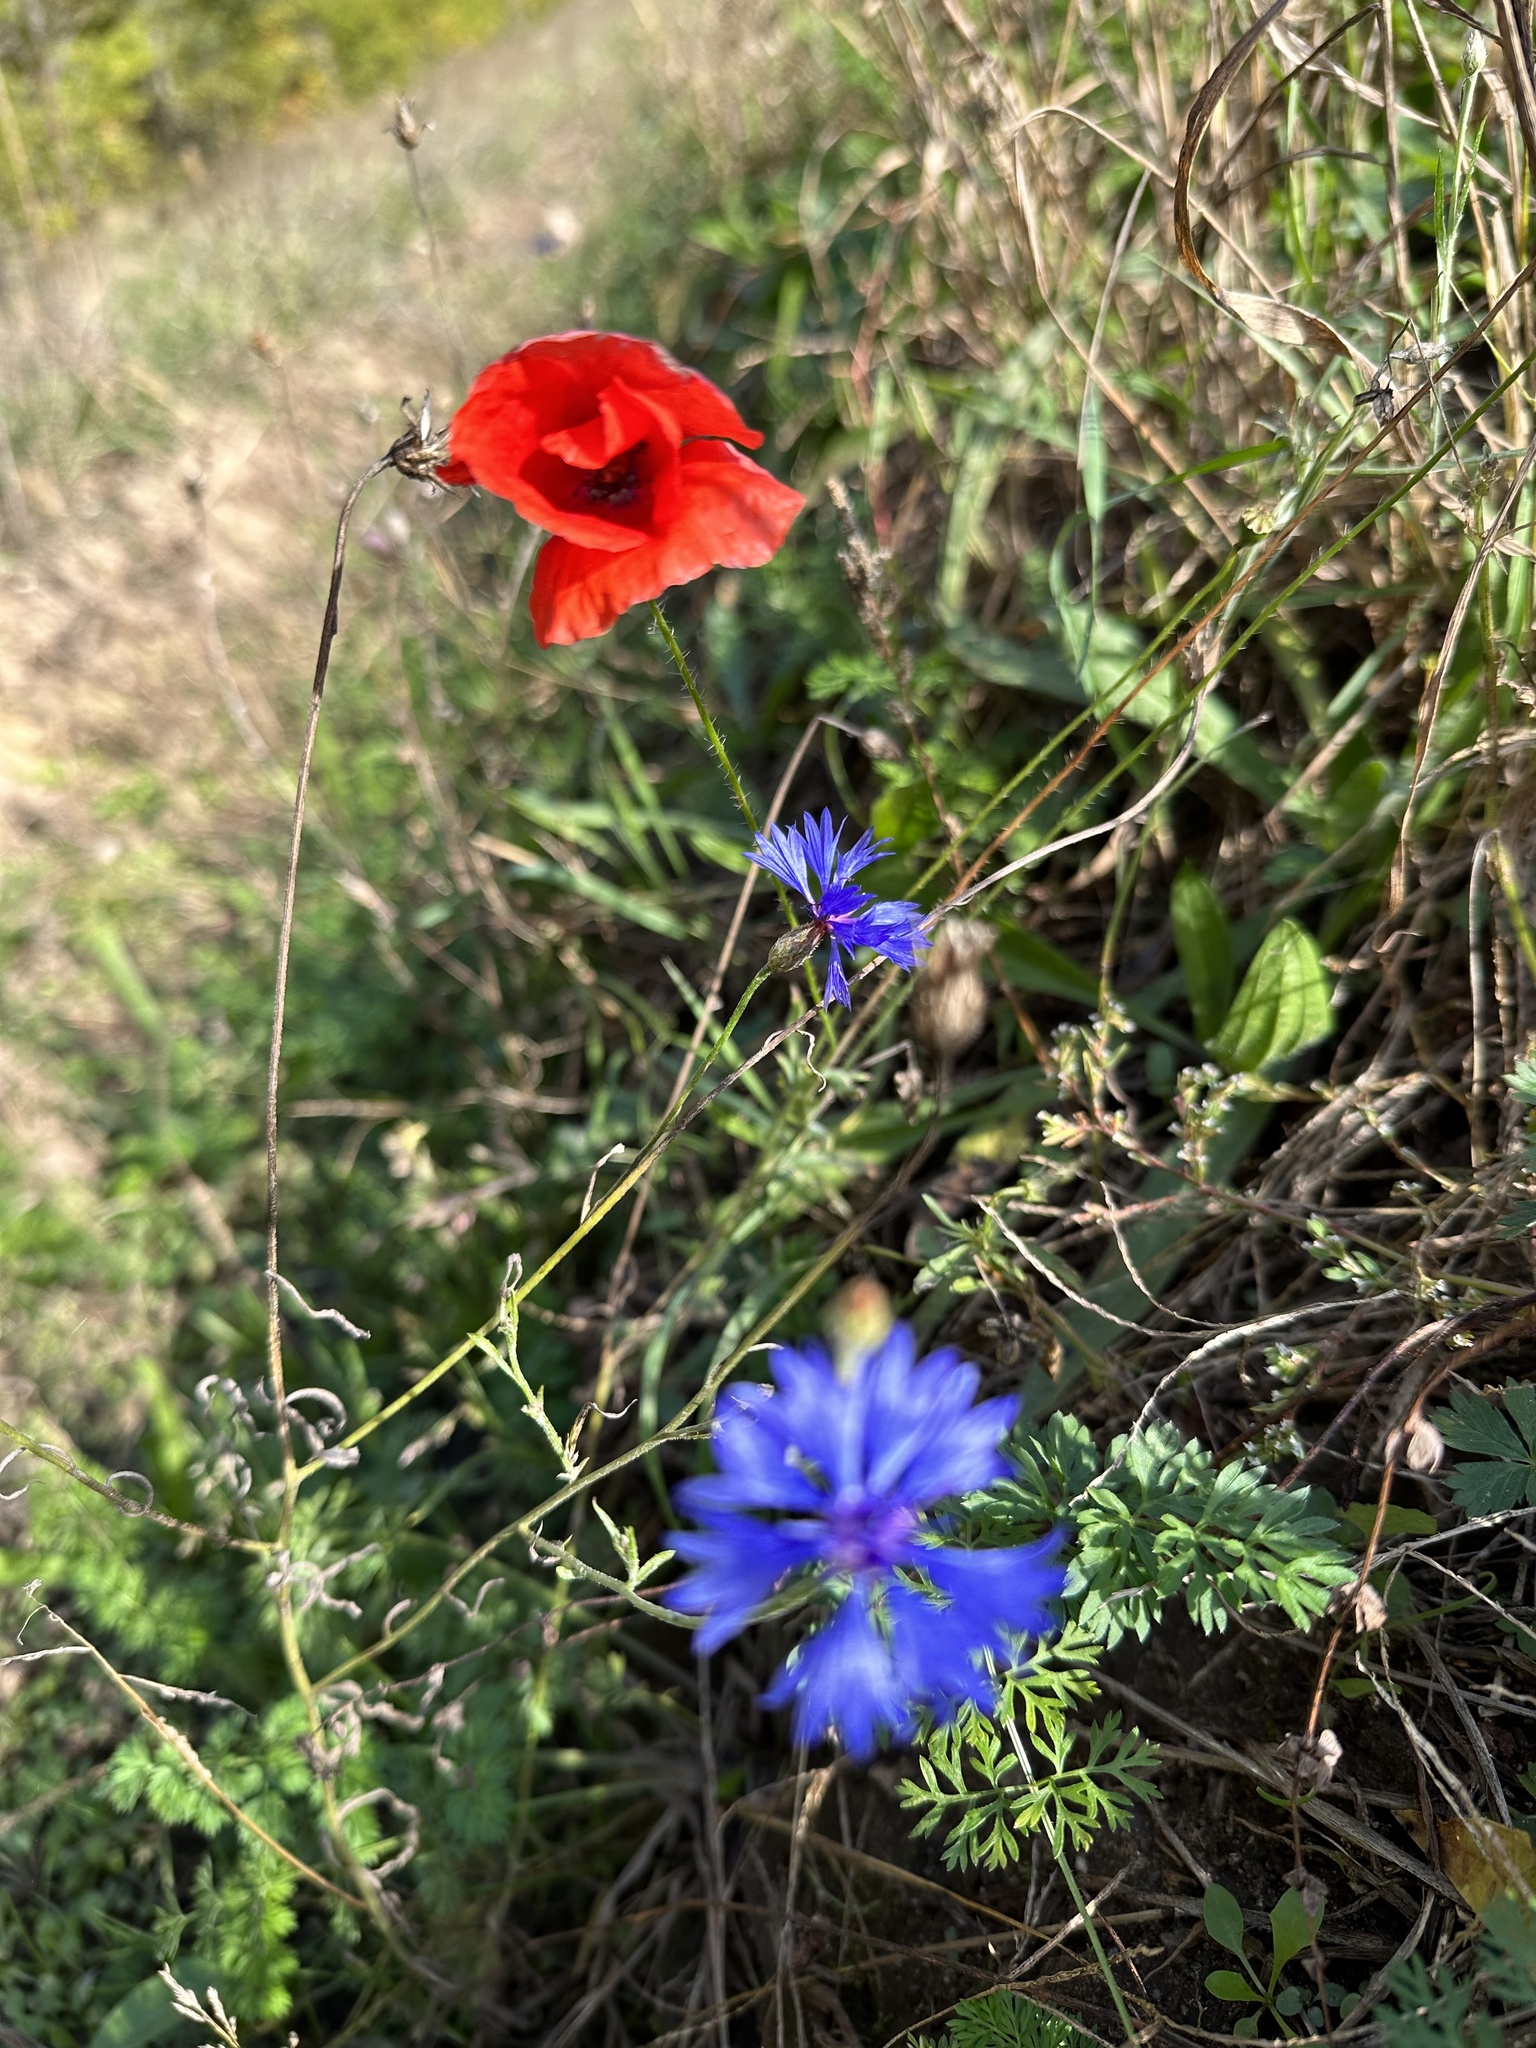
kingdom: Plantae
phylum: Tracheophyta
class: Magnoliopsida
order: Asterales
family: Asteraceae
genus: Centaurea
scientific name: Centaurea cyanus
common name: Cornflower
